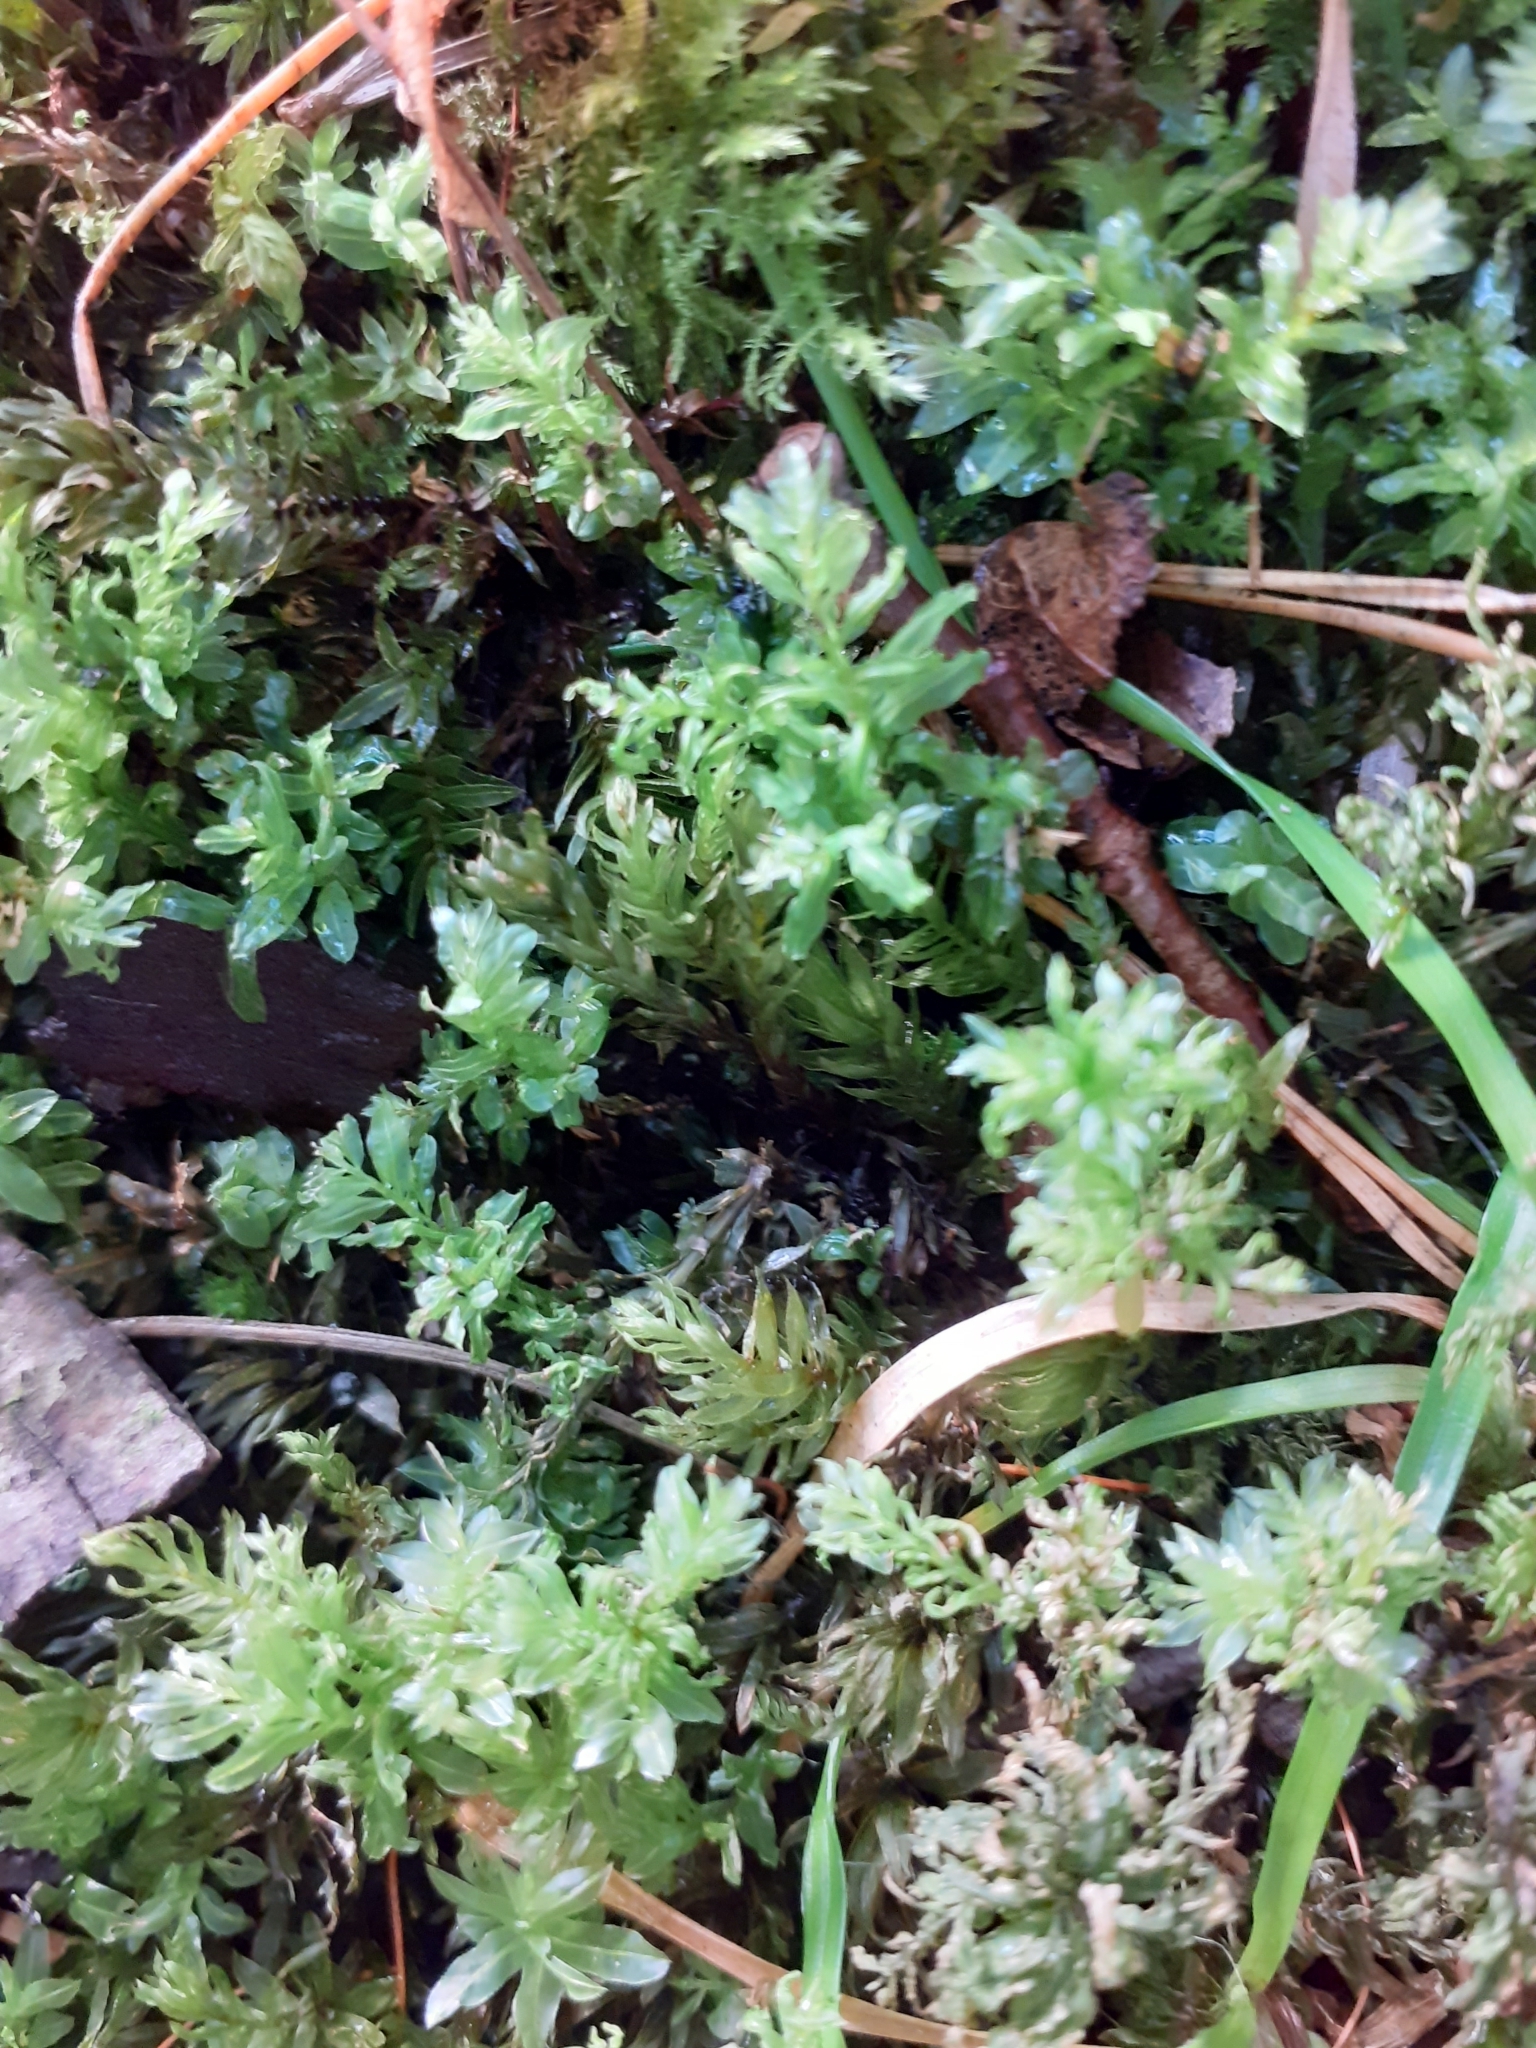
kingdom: Plantae
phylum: Bryophyta
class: Bryopsida
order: Bryales
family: Mniaceae
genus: Plagiomnium
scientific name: Plagiomnium undulatum
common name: Hart's-tongue thyme-moss
